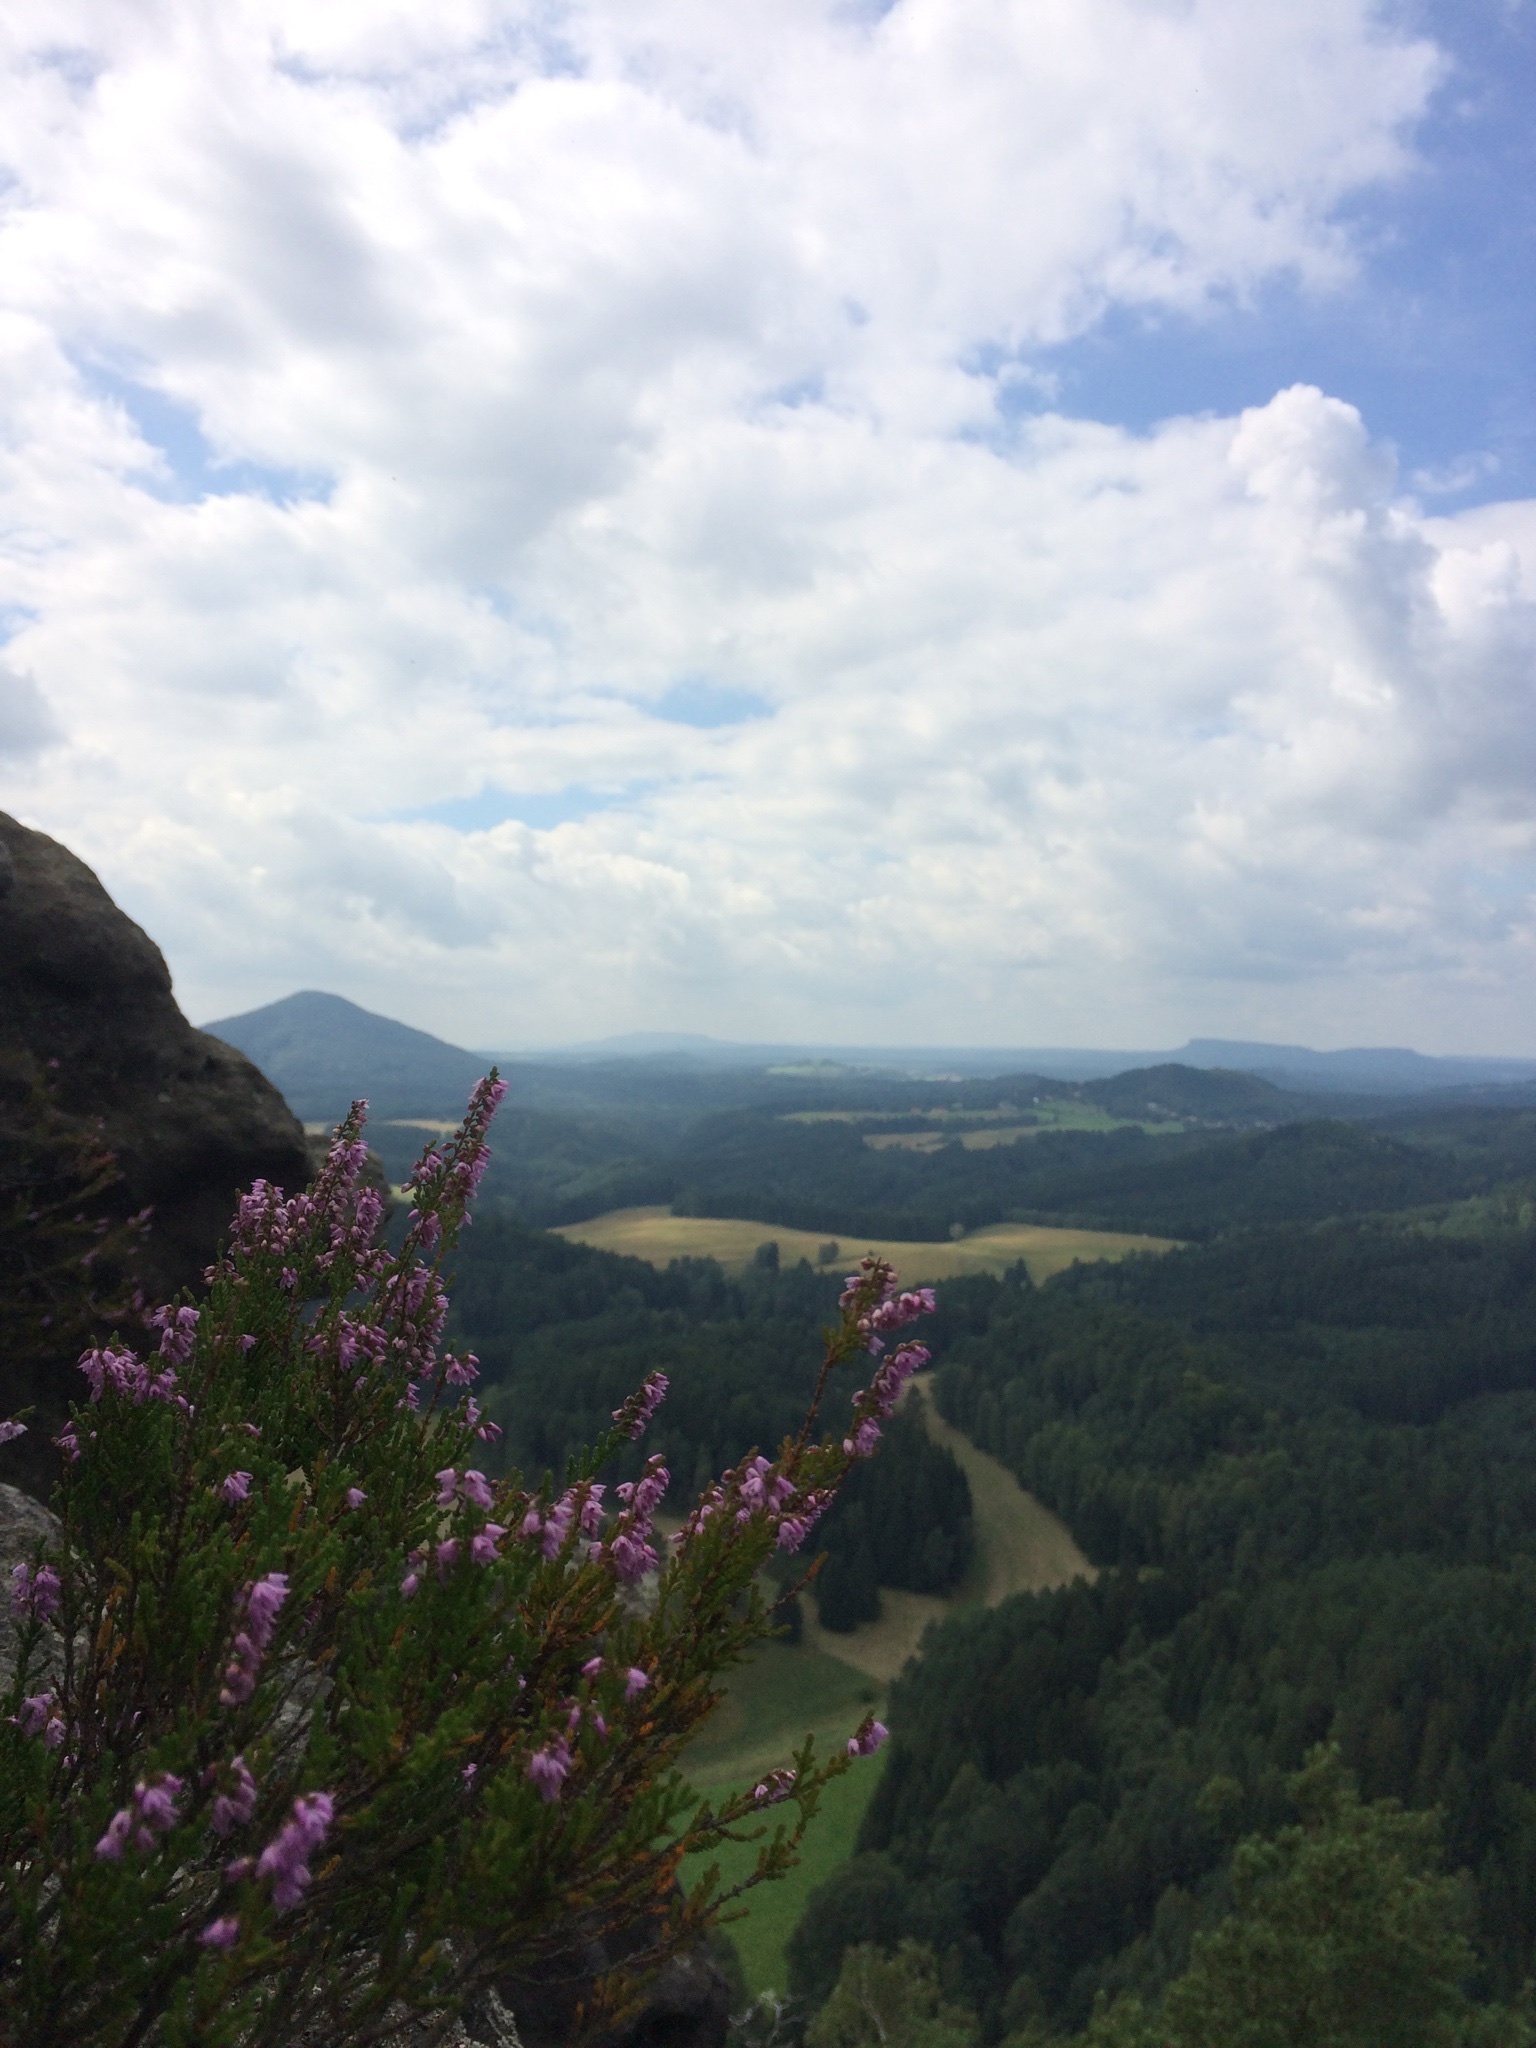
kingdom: Plantae
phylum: Tracheophyta
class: Magnoliopsida
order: Ericales
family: Ericaceae
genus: Calluna
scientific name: Calluna vulgaris
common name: Heather
